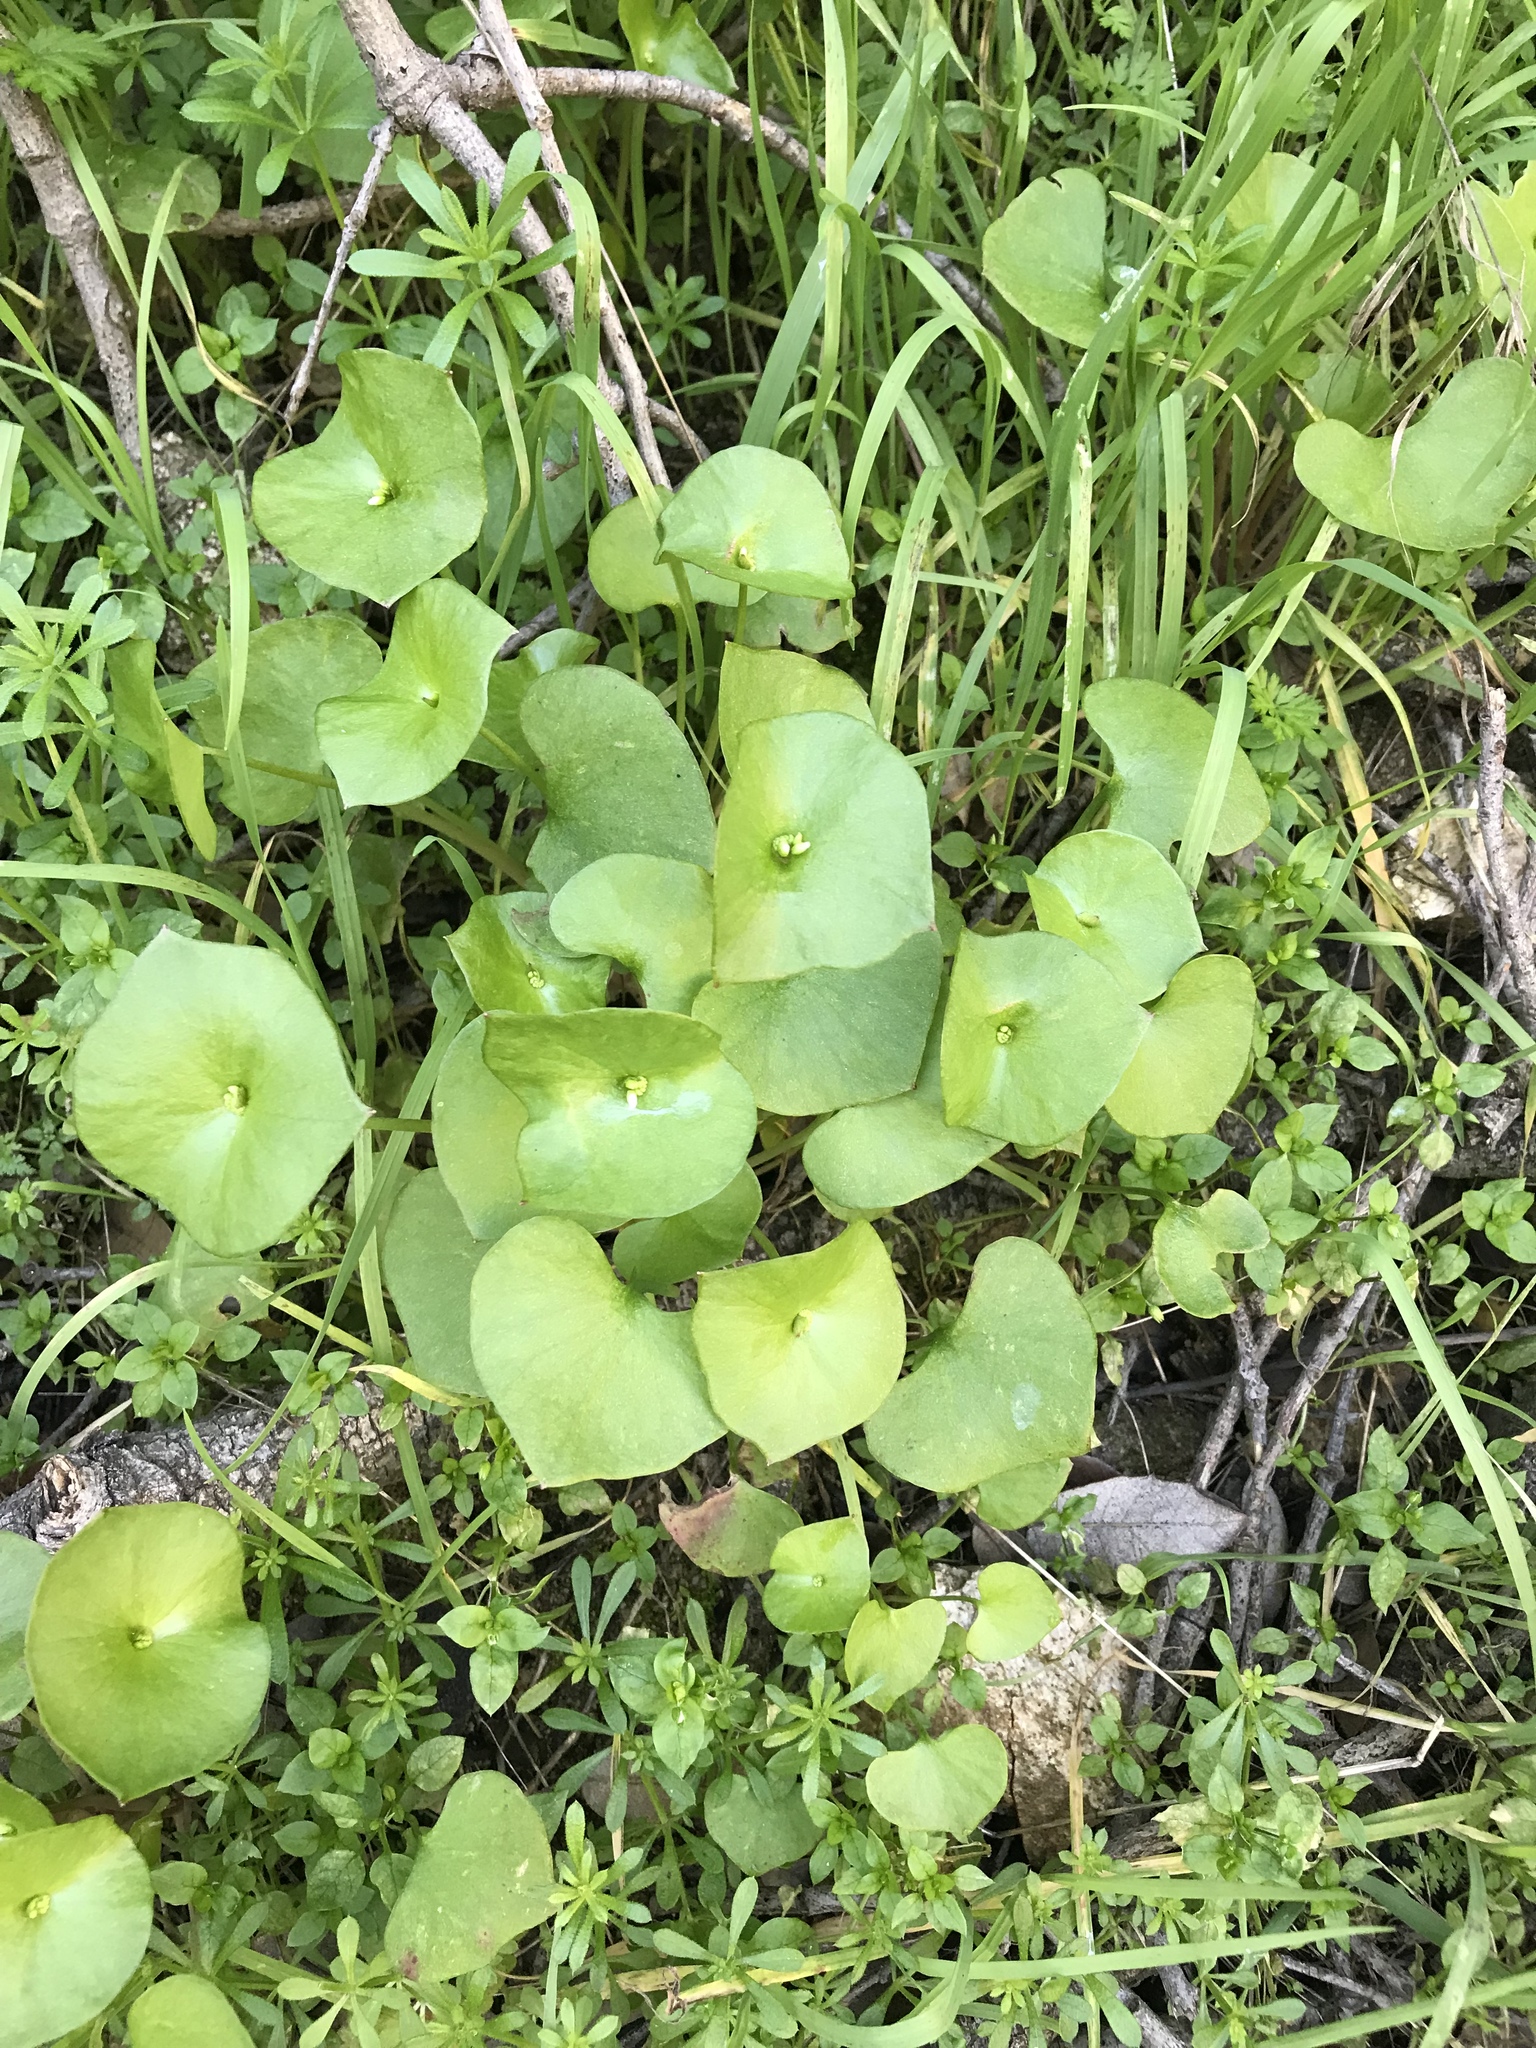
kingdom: Plantae
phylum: Tracheophyta
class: Magnoliopsida
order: Caryophyllales
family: Montiaceae
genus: Claytonia
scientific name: Claytonia perfoliata
